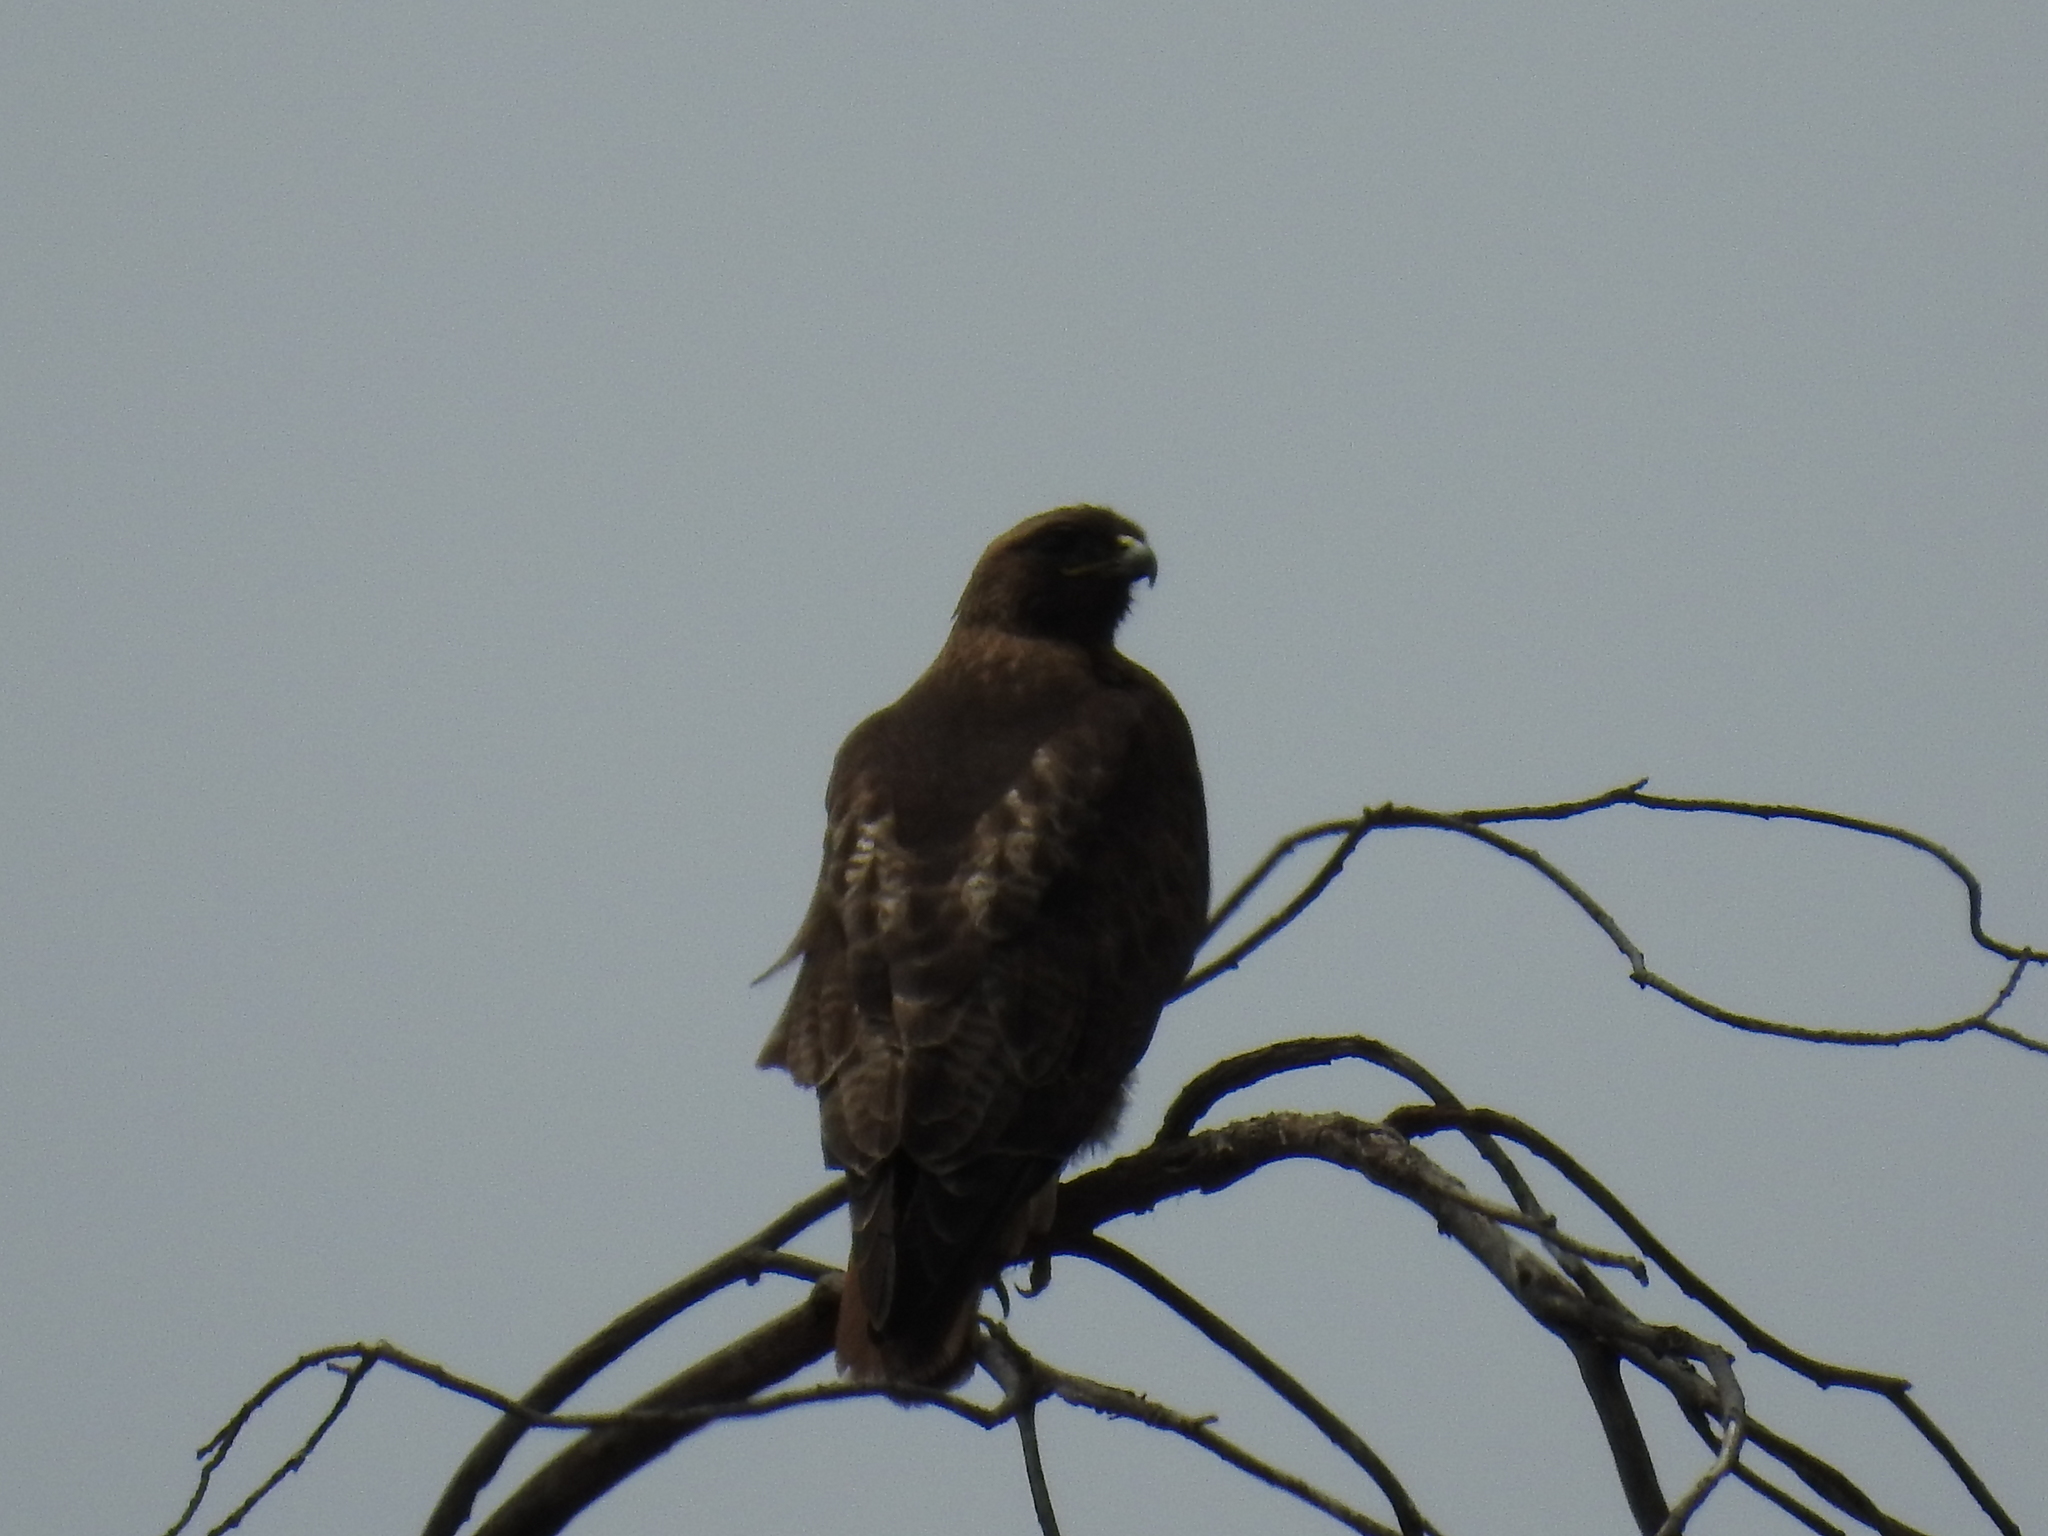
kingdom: Animalia
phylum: Chordata
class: Aves
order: Accipitriformes
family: Accipitridae
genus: Buteo
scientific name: Buteo jamaicensis
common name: Red-tailed hawk
